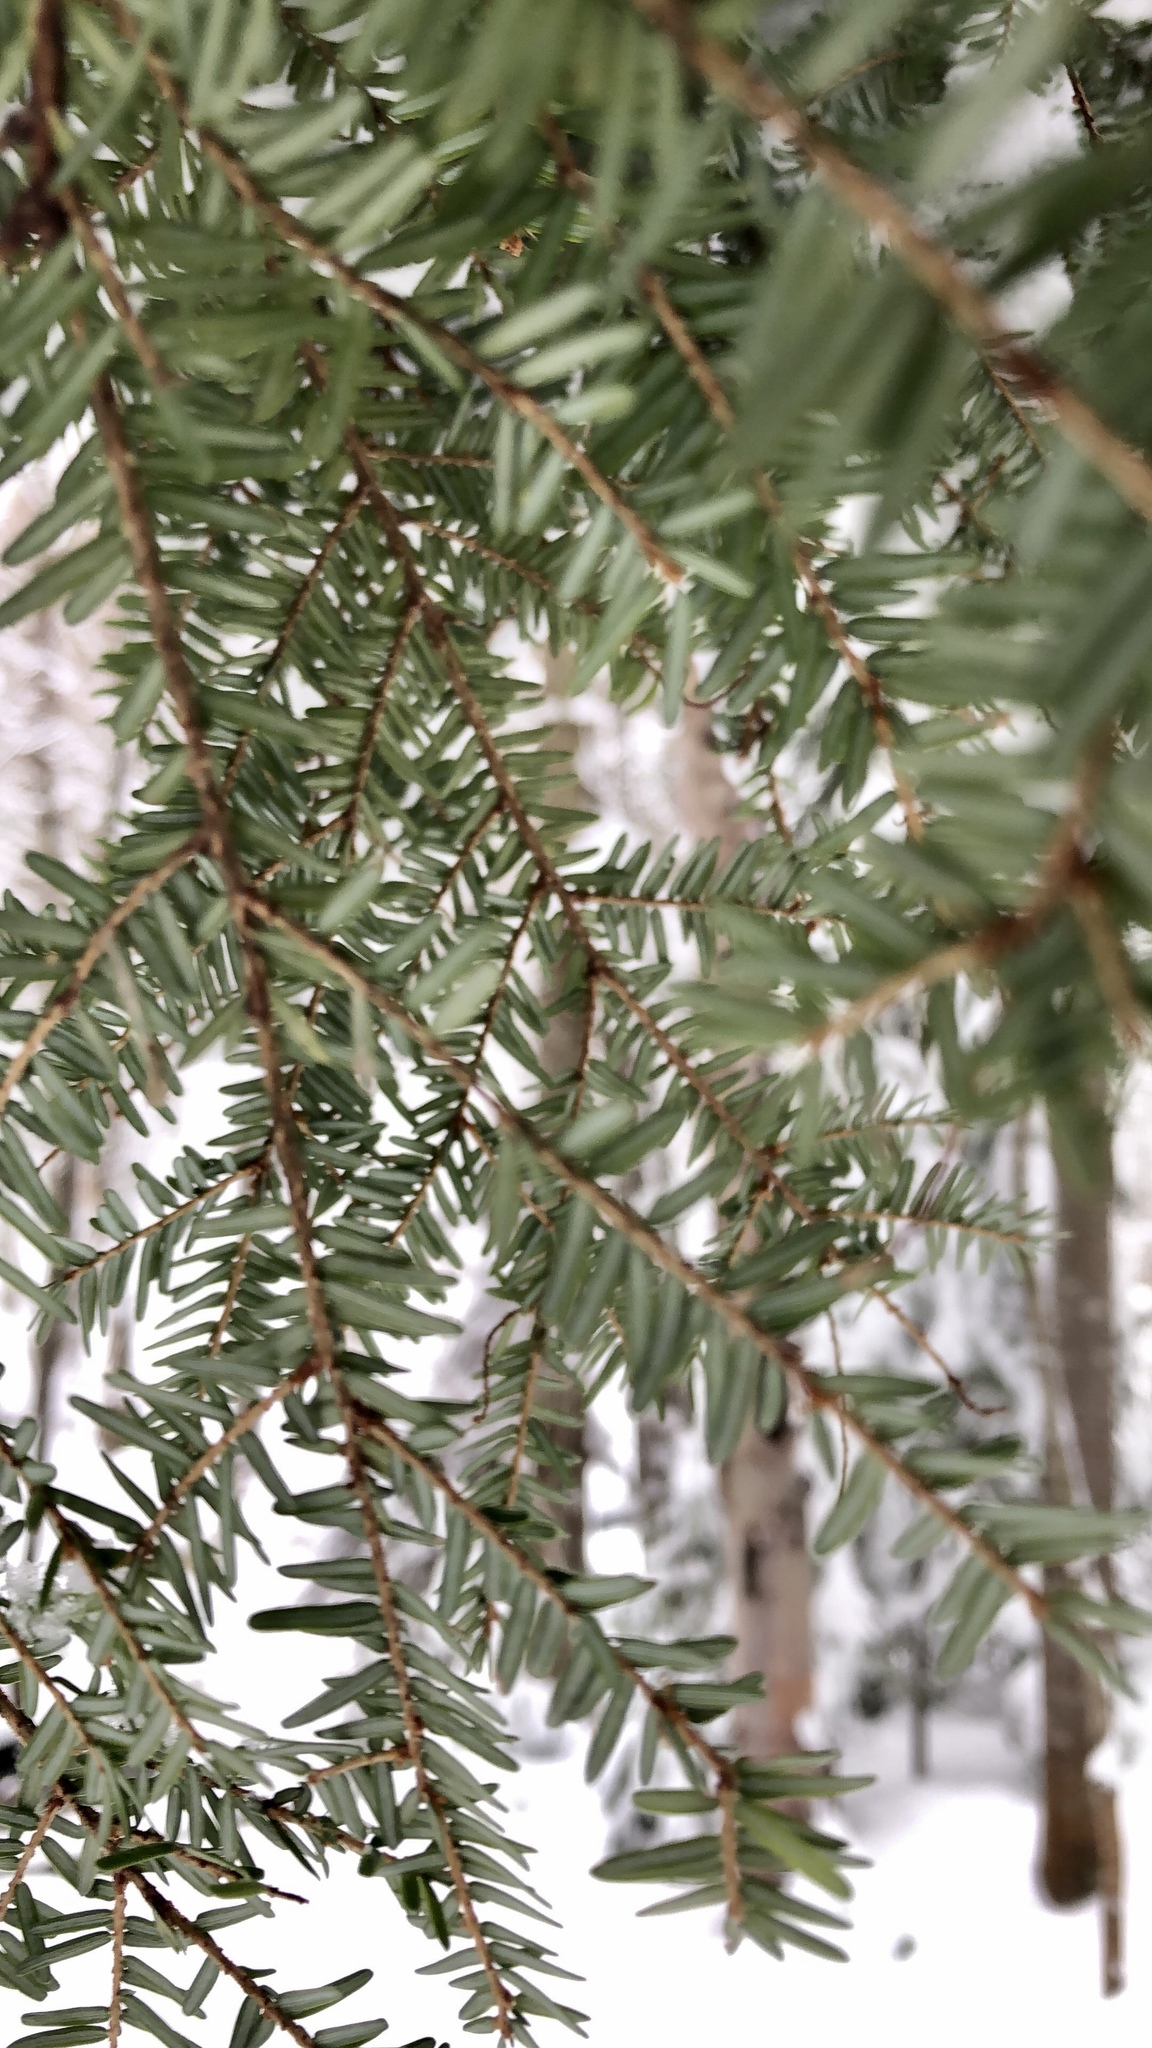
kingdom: Plantae
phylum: Tracheophyta
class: Pinopsida
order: Pinales
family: Pinaceae
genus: Tsuga
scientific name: Tsuga canadensis
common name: Eastern hemlock
